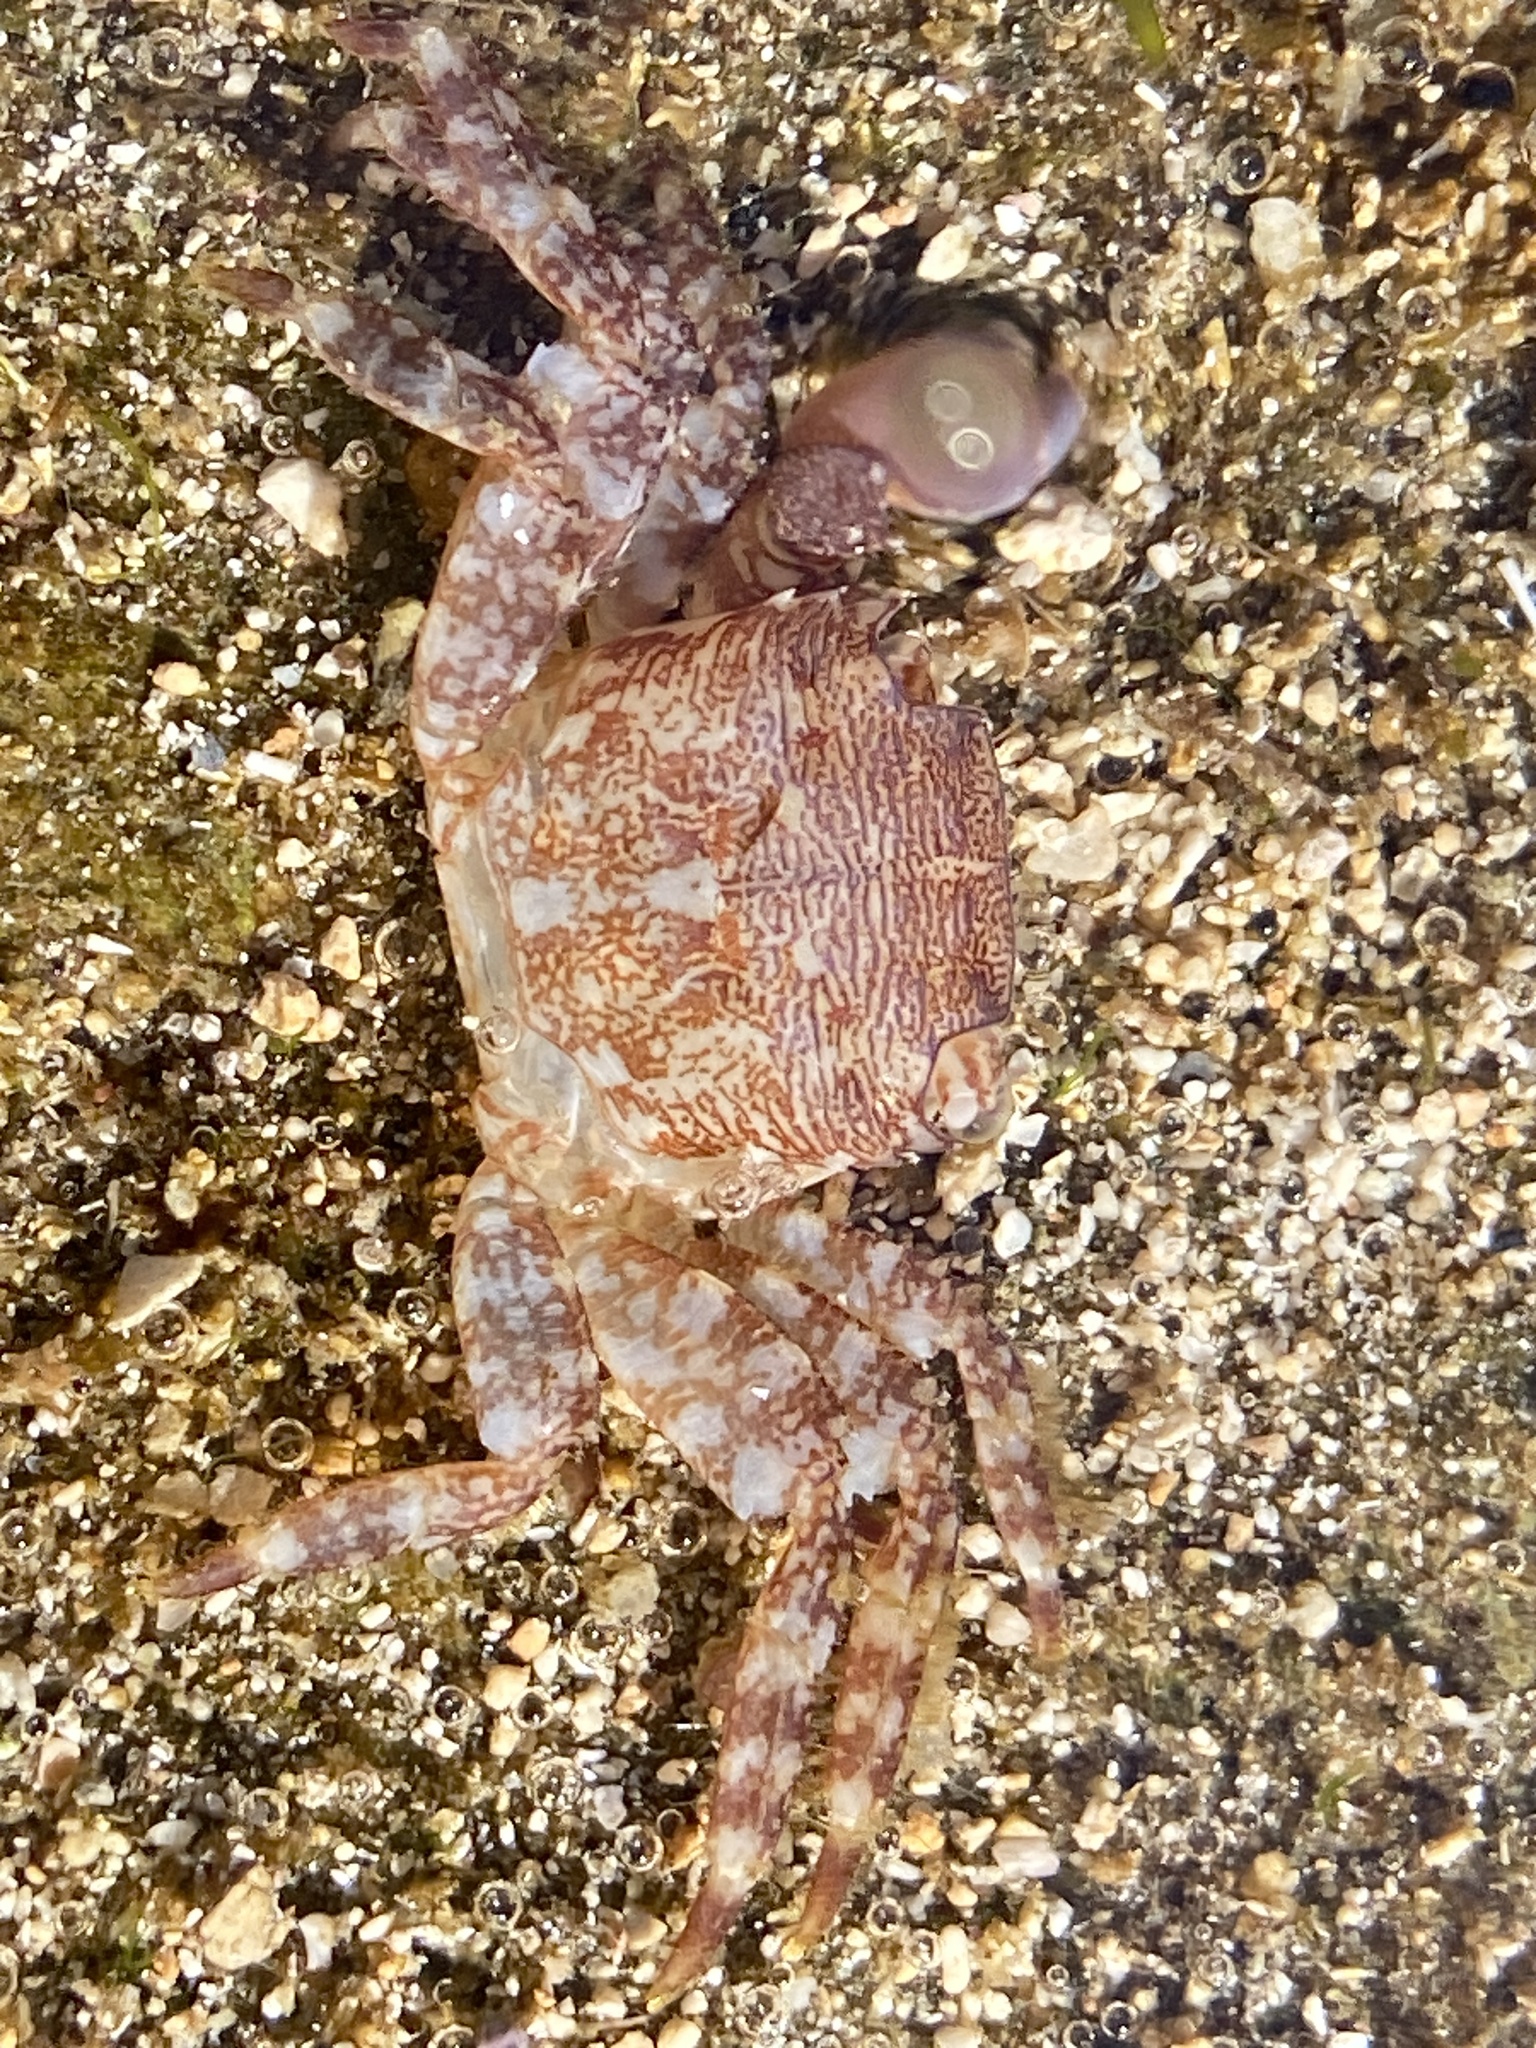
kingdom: Animalia
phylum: Arthropoda
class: Malacostraca
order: Decapoda
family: Grapsidae
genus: Pachygrapsus
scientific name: Pachygrapsus marmoratus
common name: Marbled rock crab
